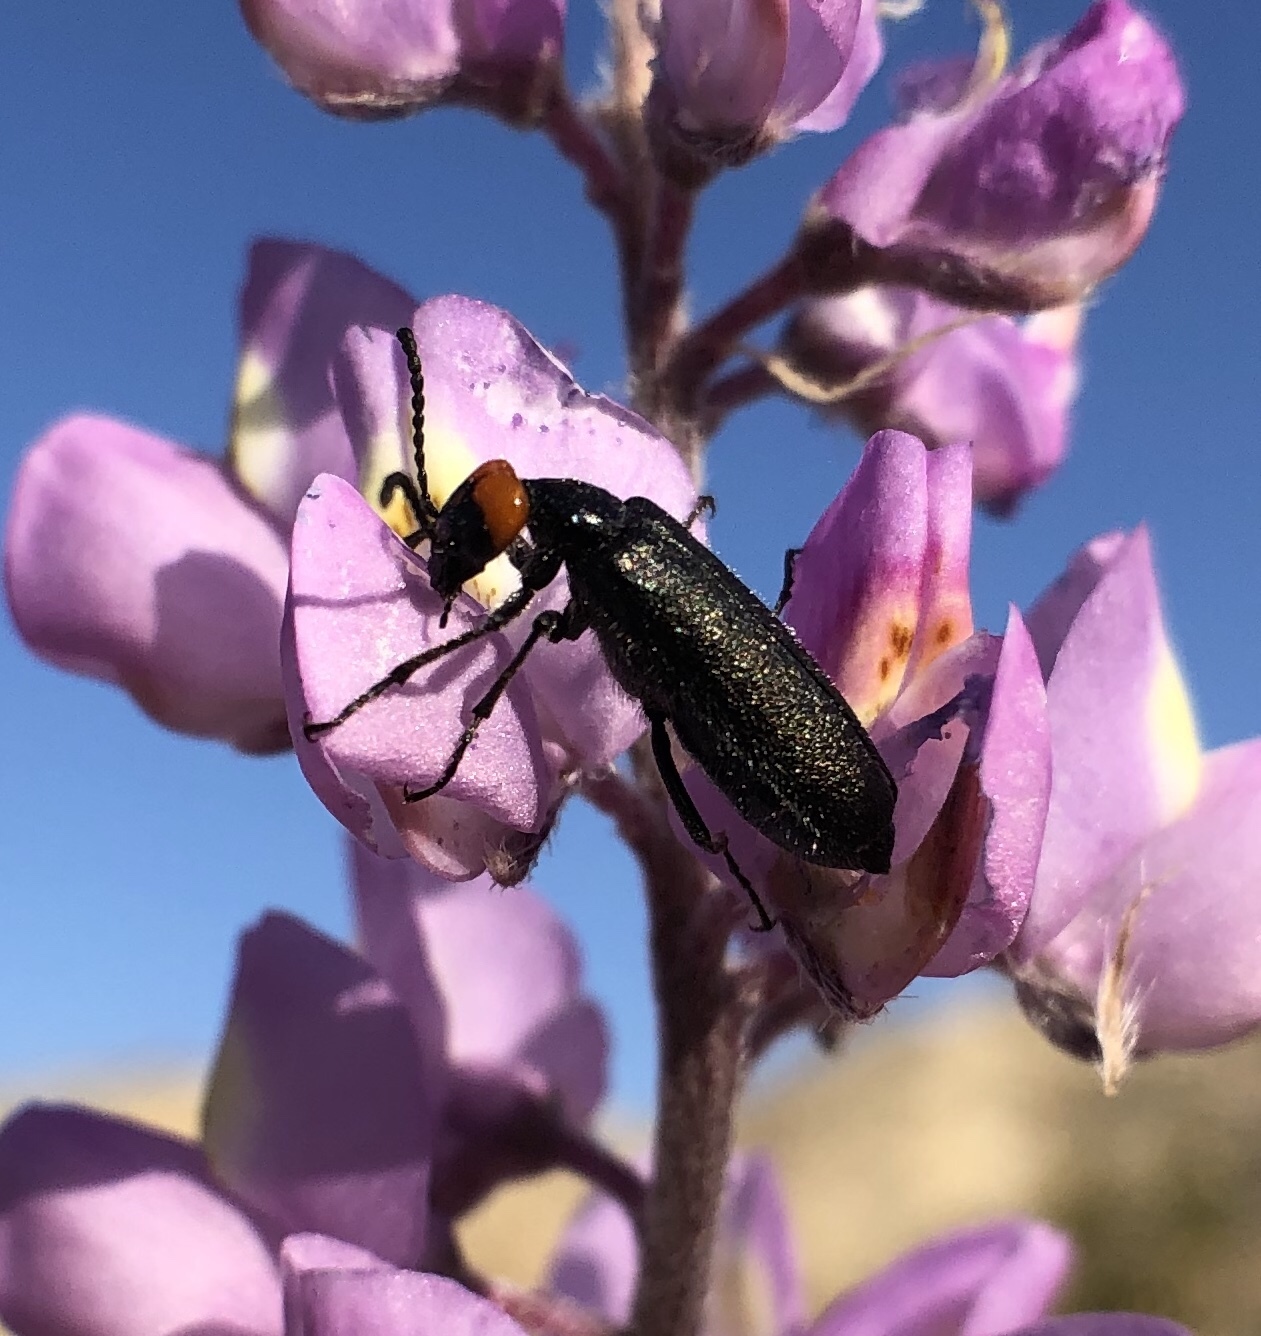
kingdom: Animalia
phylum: Arthropoda
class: Insecta
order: Coleoptera
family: Meloidae
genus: Lytta
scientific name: Lytta auriculata
